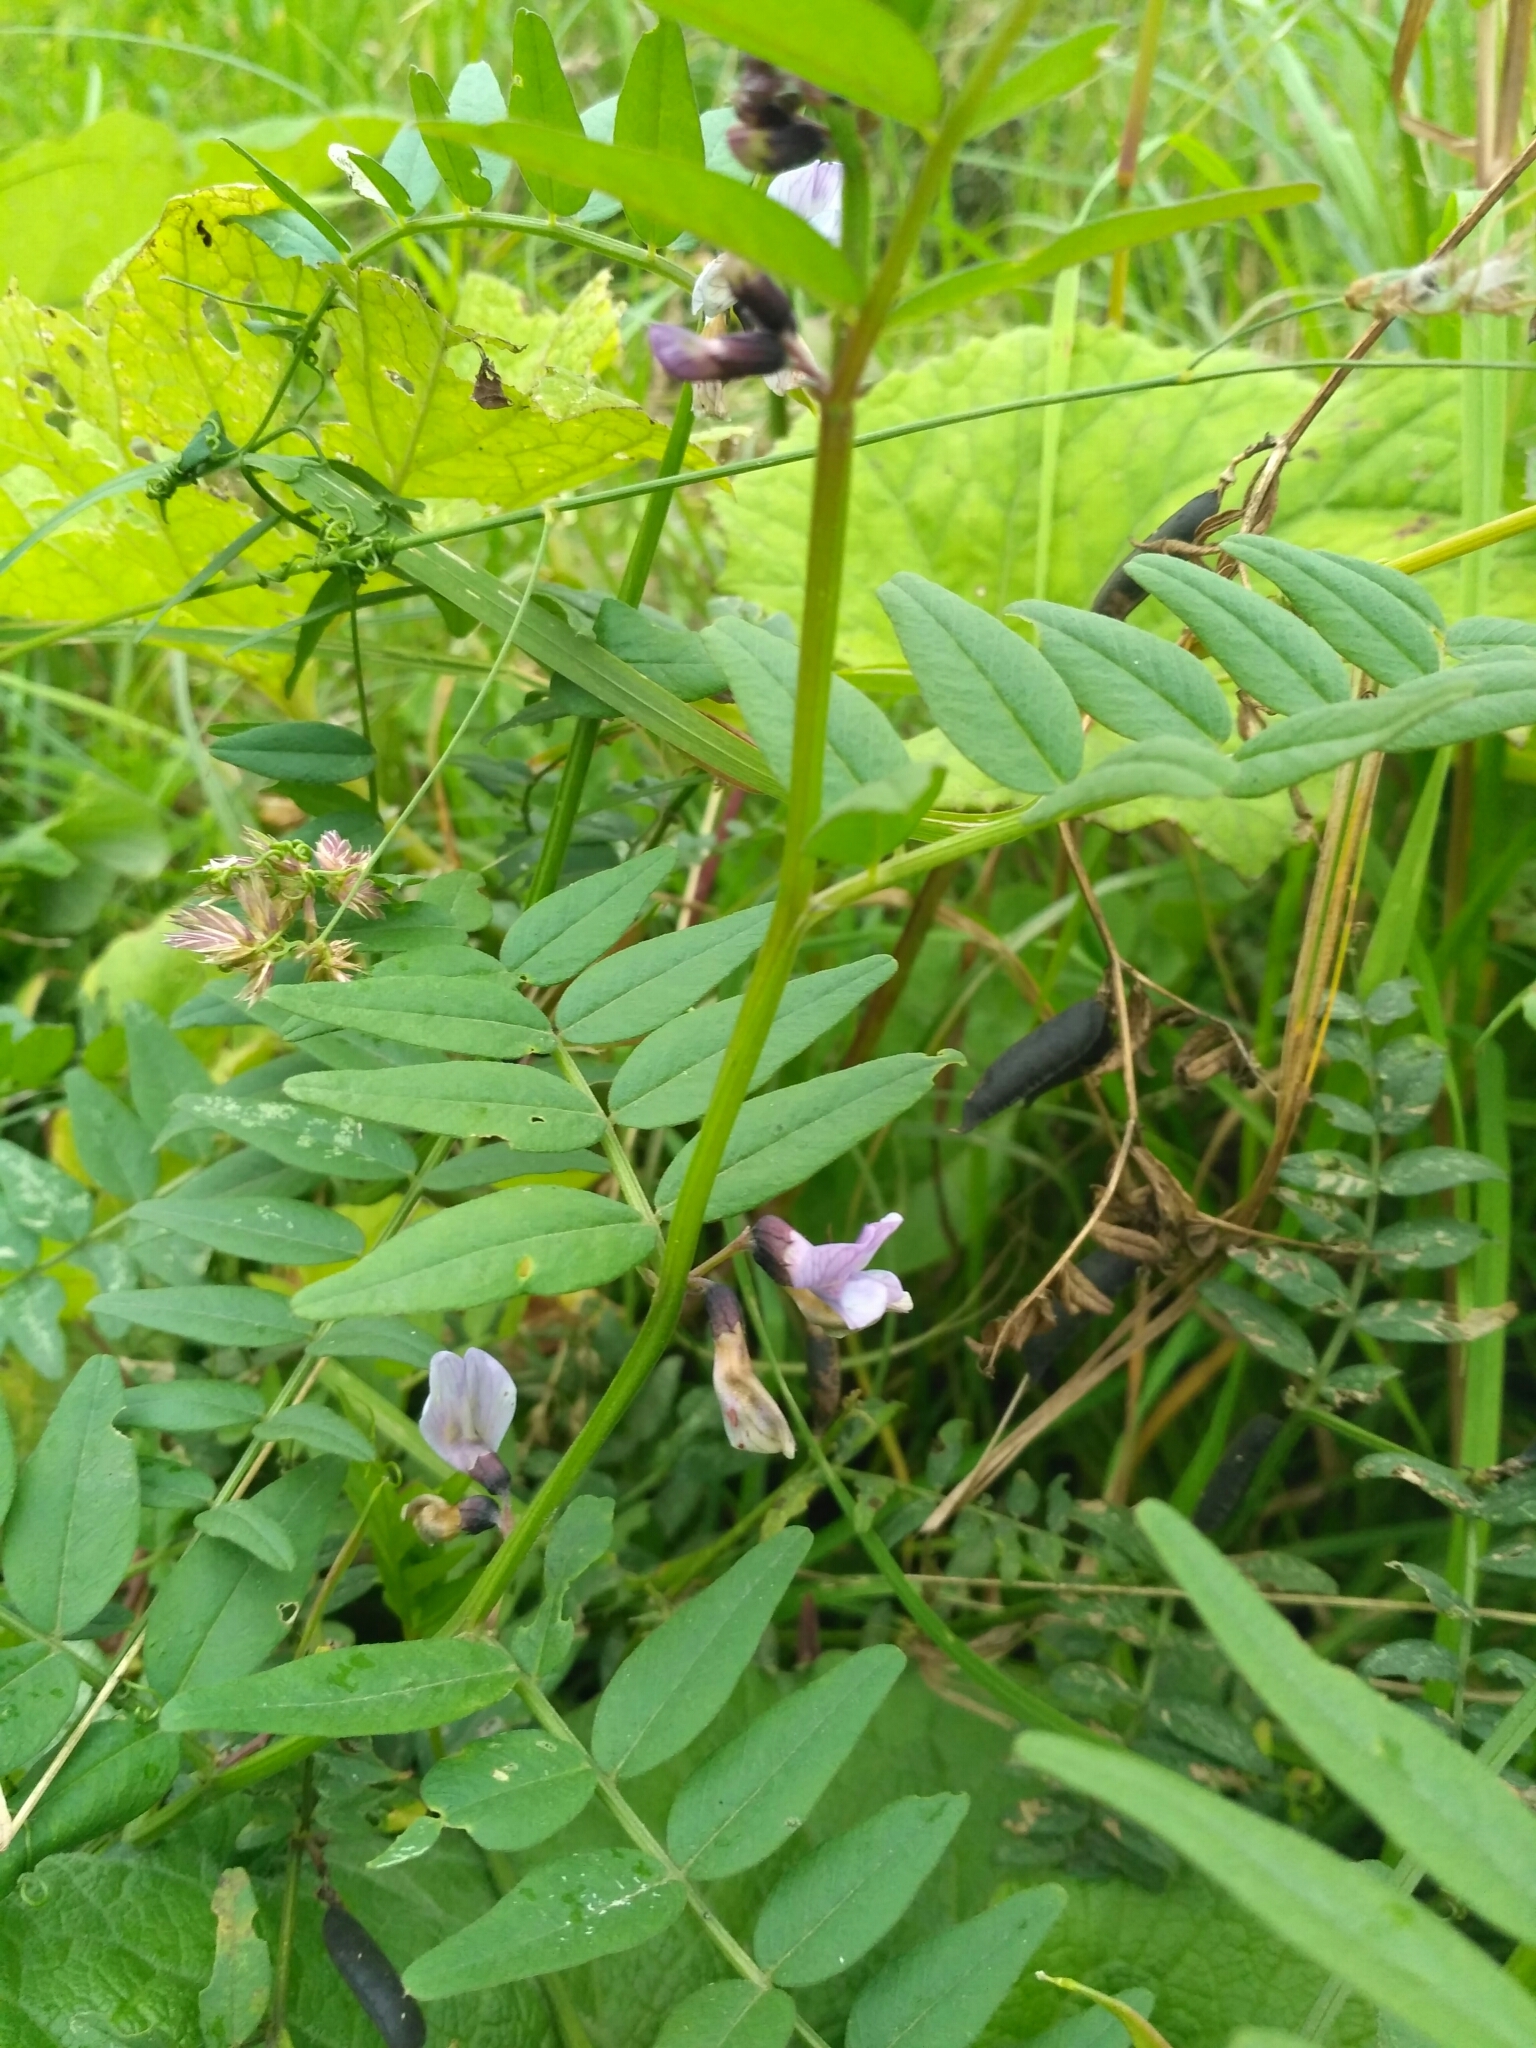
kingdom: Plantae
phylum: Tracheophyta
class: Magnoliopsida
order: Fabales
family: Fabaceae
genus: Vicia
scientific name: Vicia sepium
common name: Bush vetch
